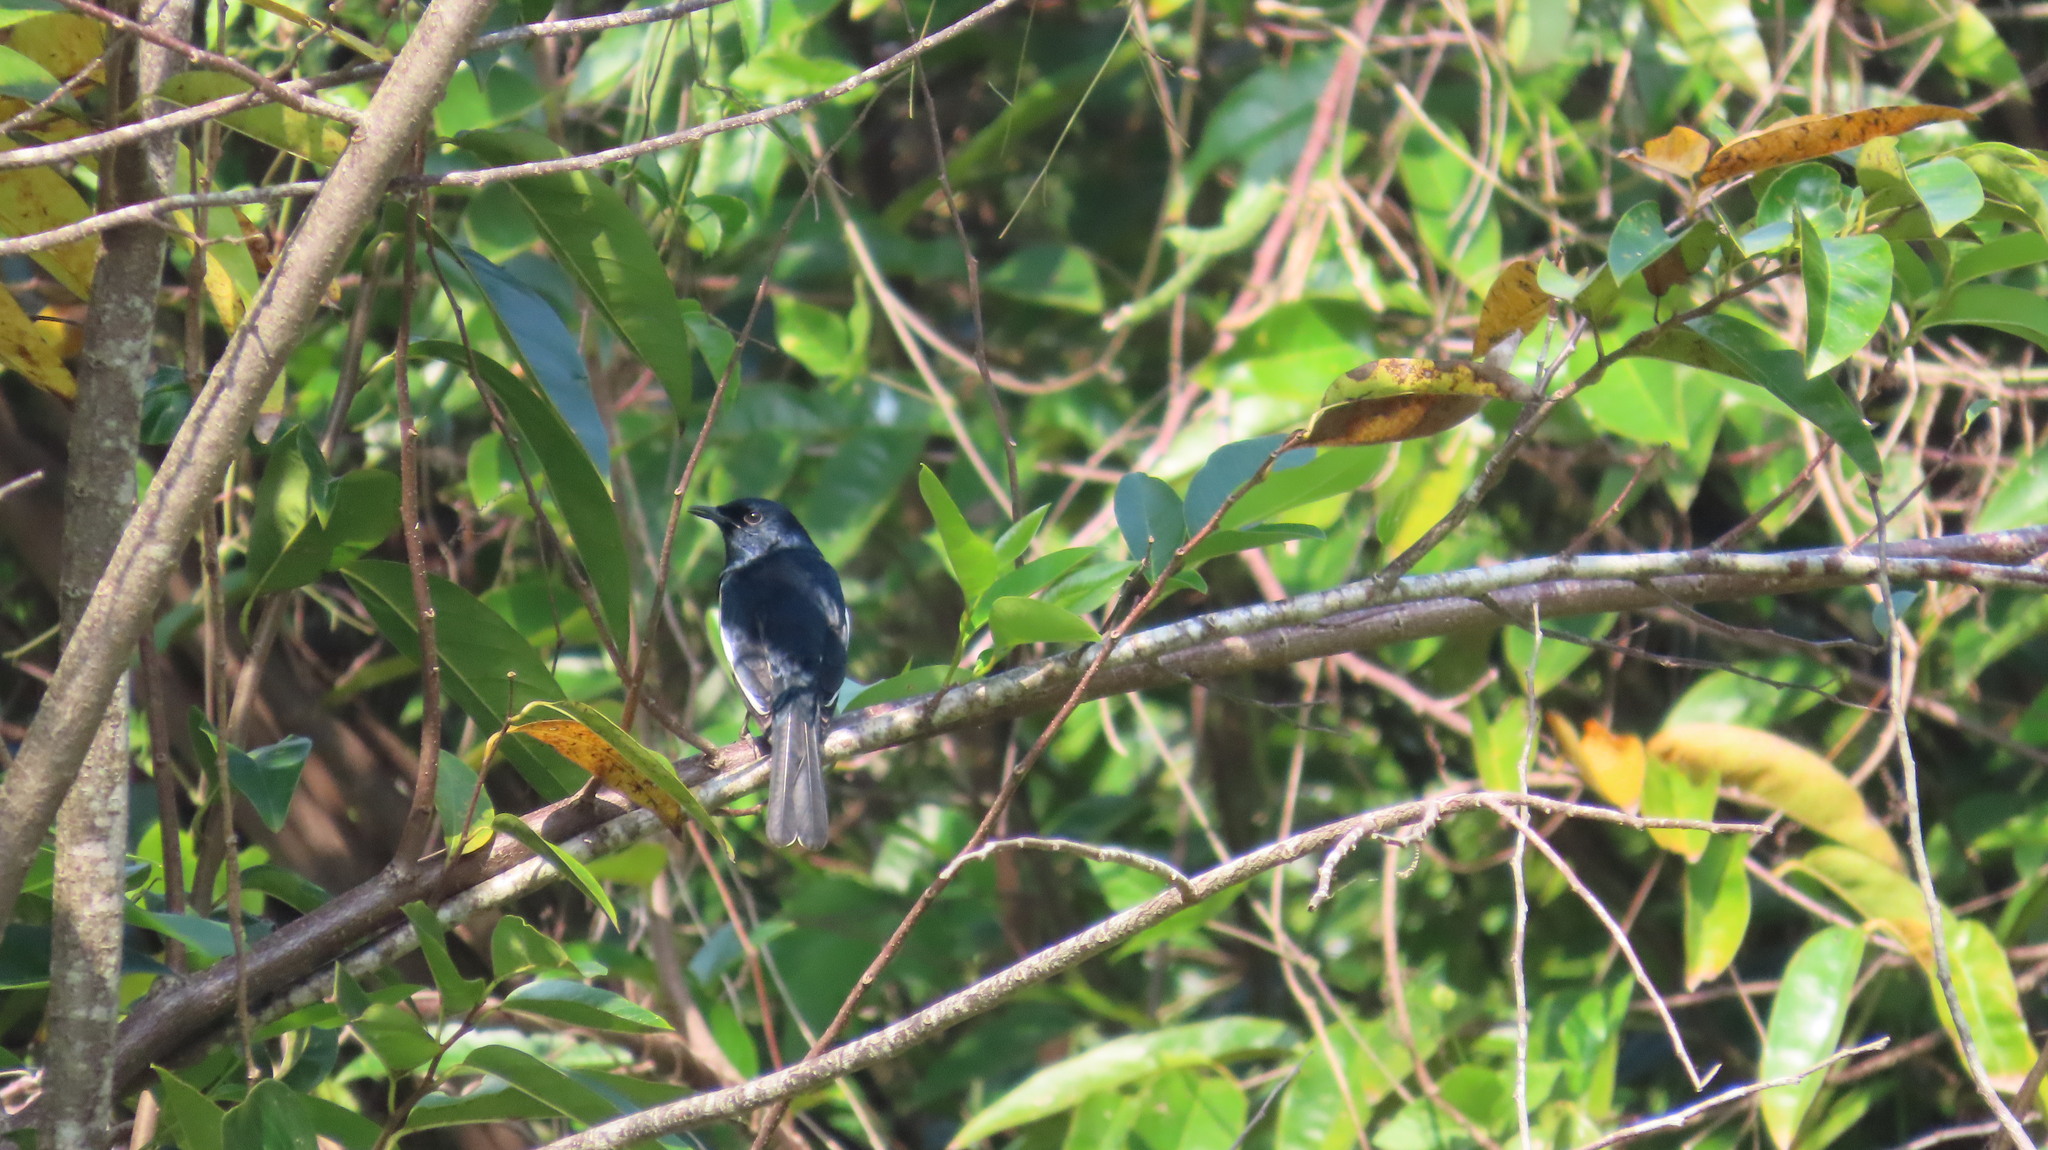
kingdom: Animalia
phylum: Chordata
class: Aves
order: Passeriformes
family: Muscicapidae
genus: Copsychus
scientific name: Copsychus saularis
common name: Oriental magpie-robin
